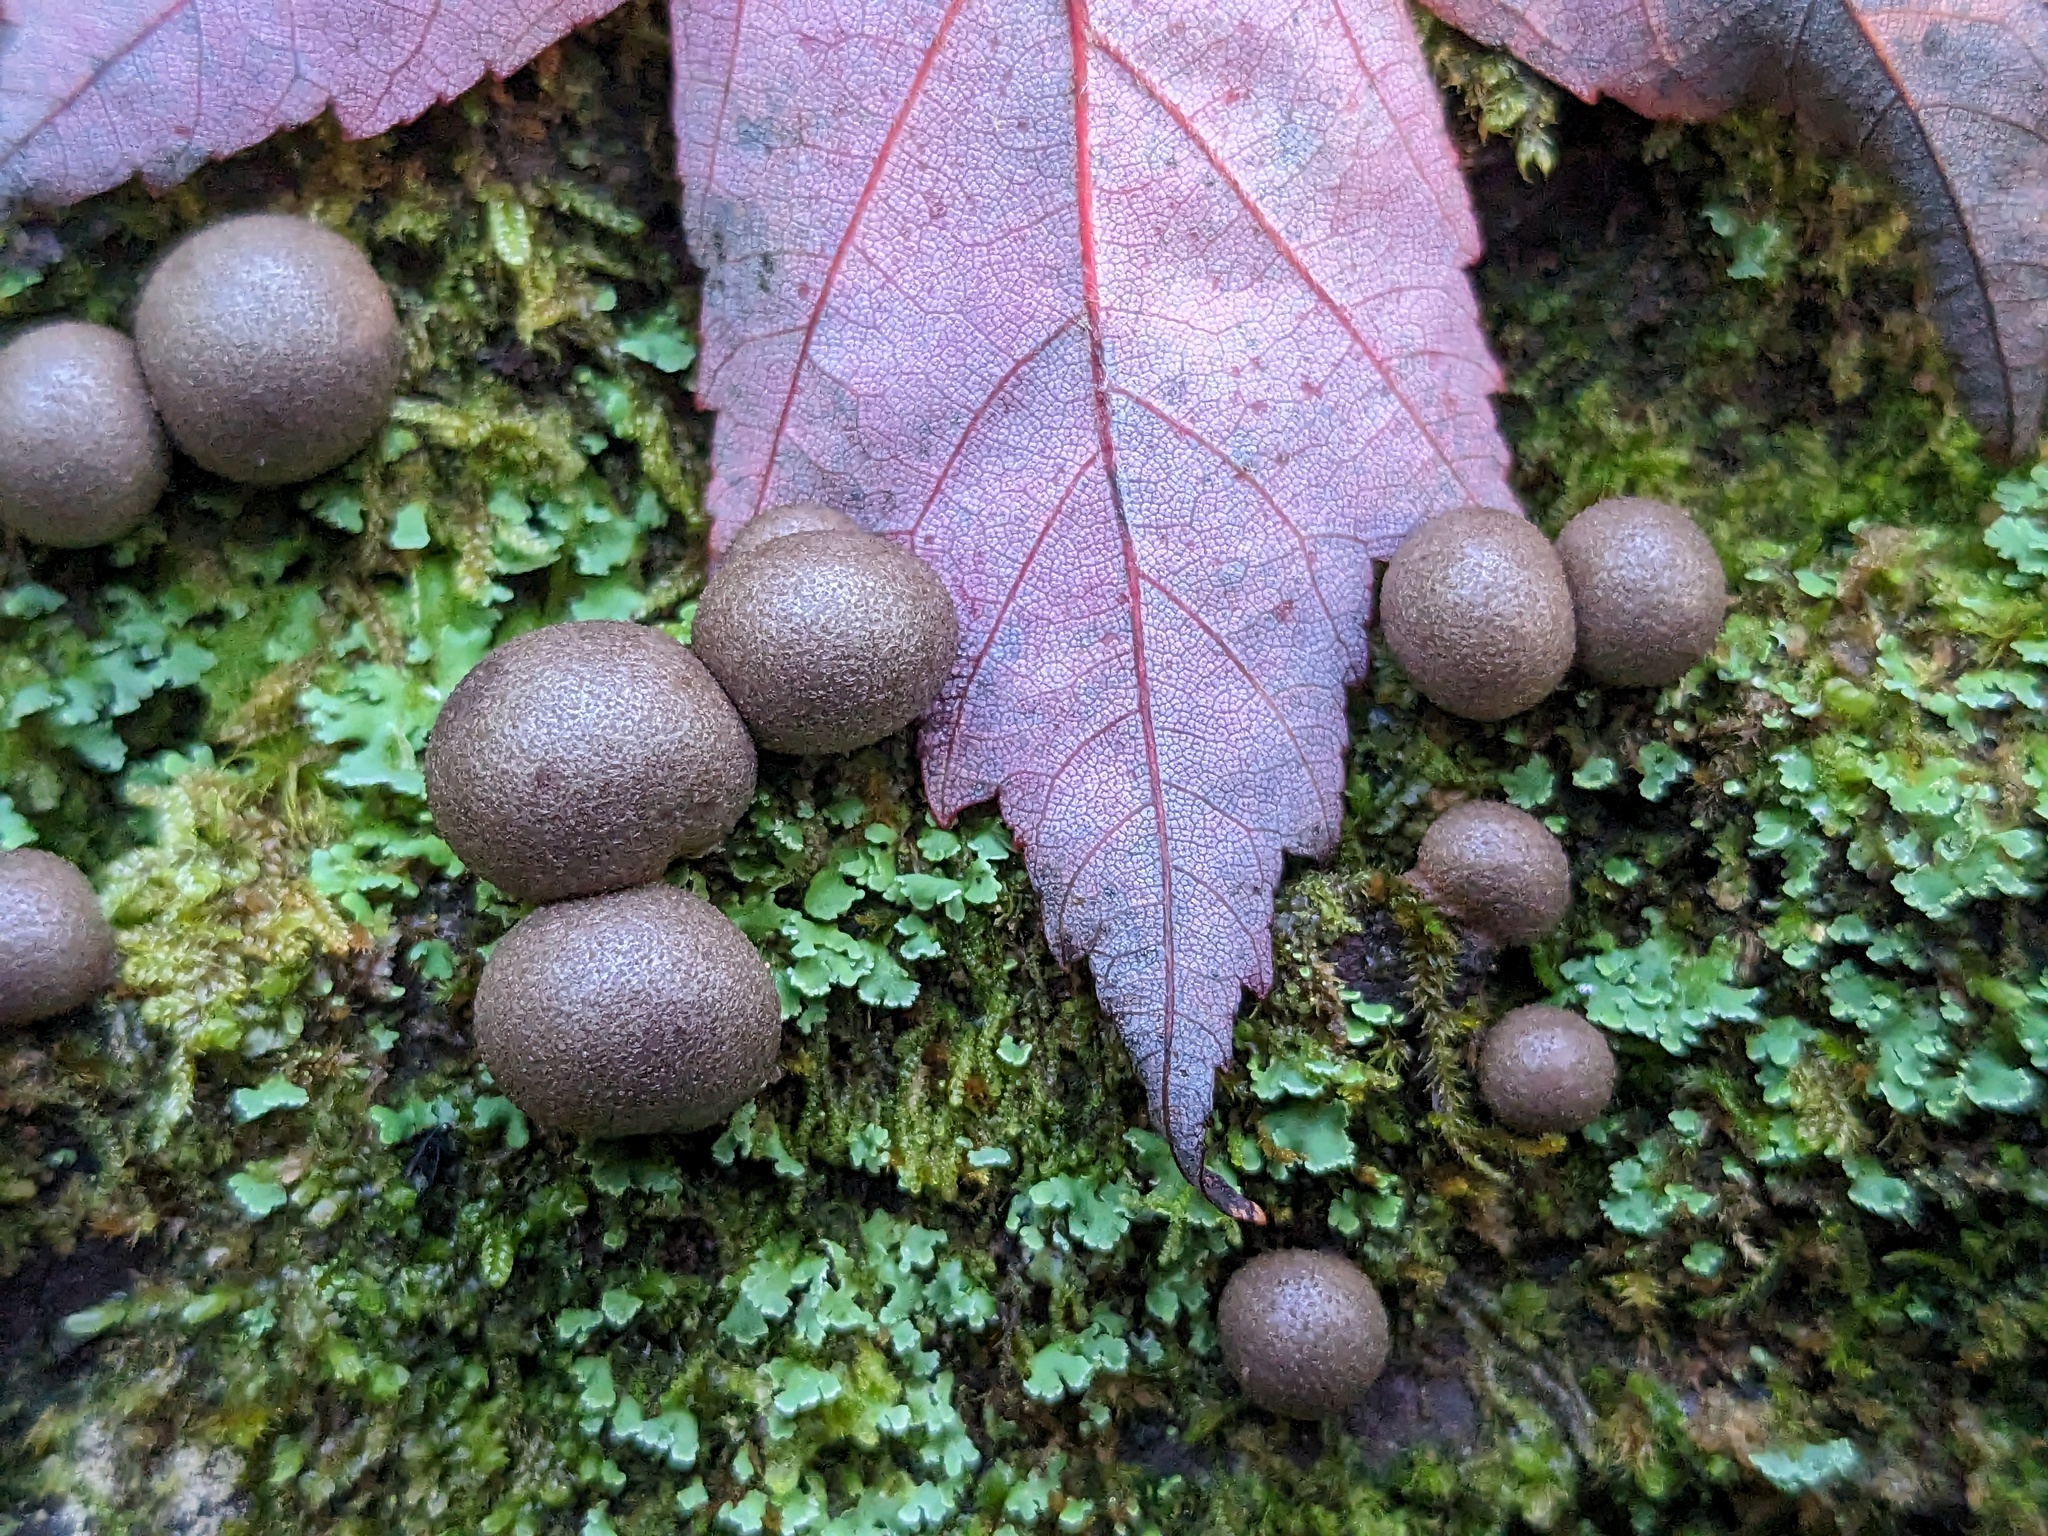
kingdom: Protozoa
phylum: Mycetozoa
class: Myxomycetes
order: Cribrariales
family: Tubiferaceae
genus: Lycogala
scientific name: Lycogala epidendrum
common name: Wolf's milk
